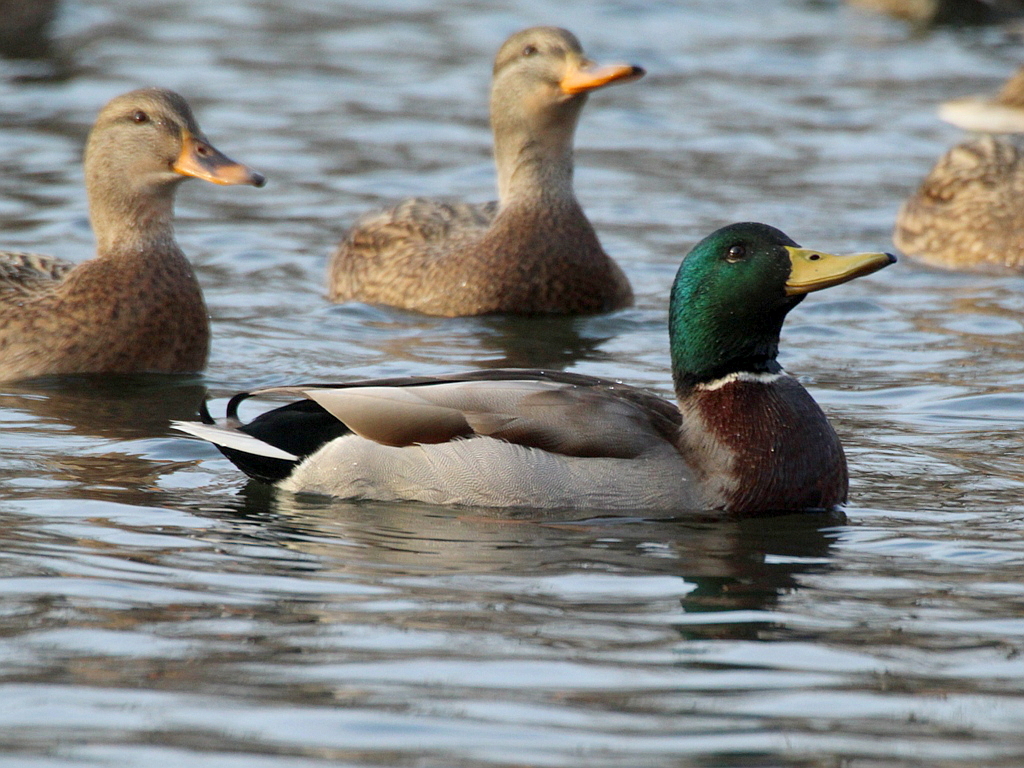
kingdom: Animalia
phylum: Chordata
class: Aves
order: Anseriformes
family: Anatidae
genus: Anas
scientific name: Anas platyrhynchos
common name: Mallard
